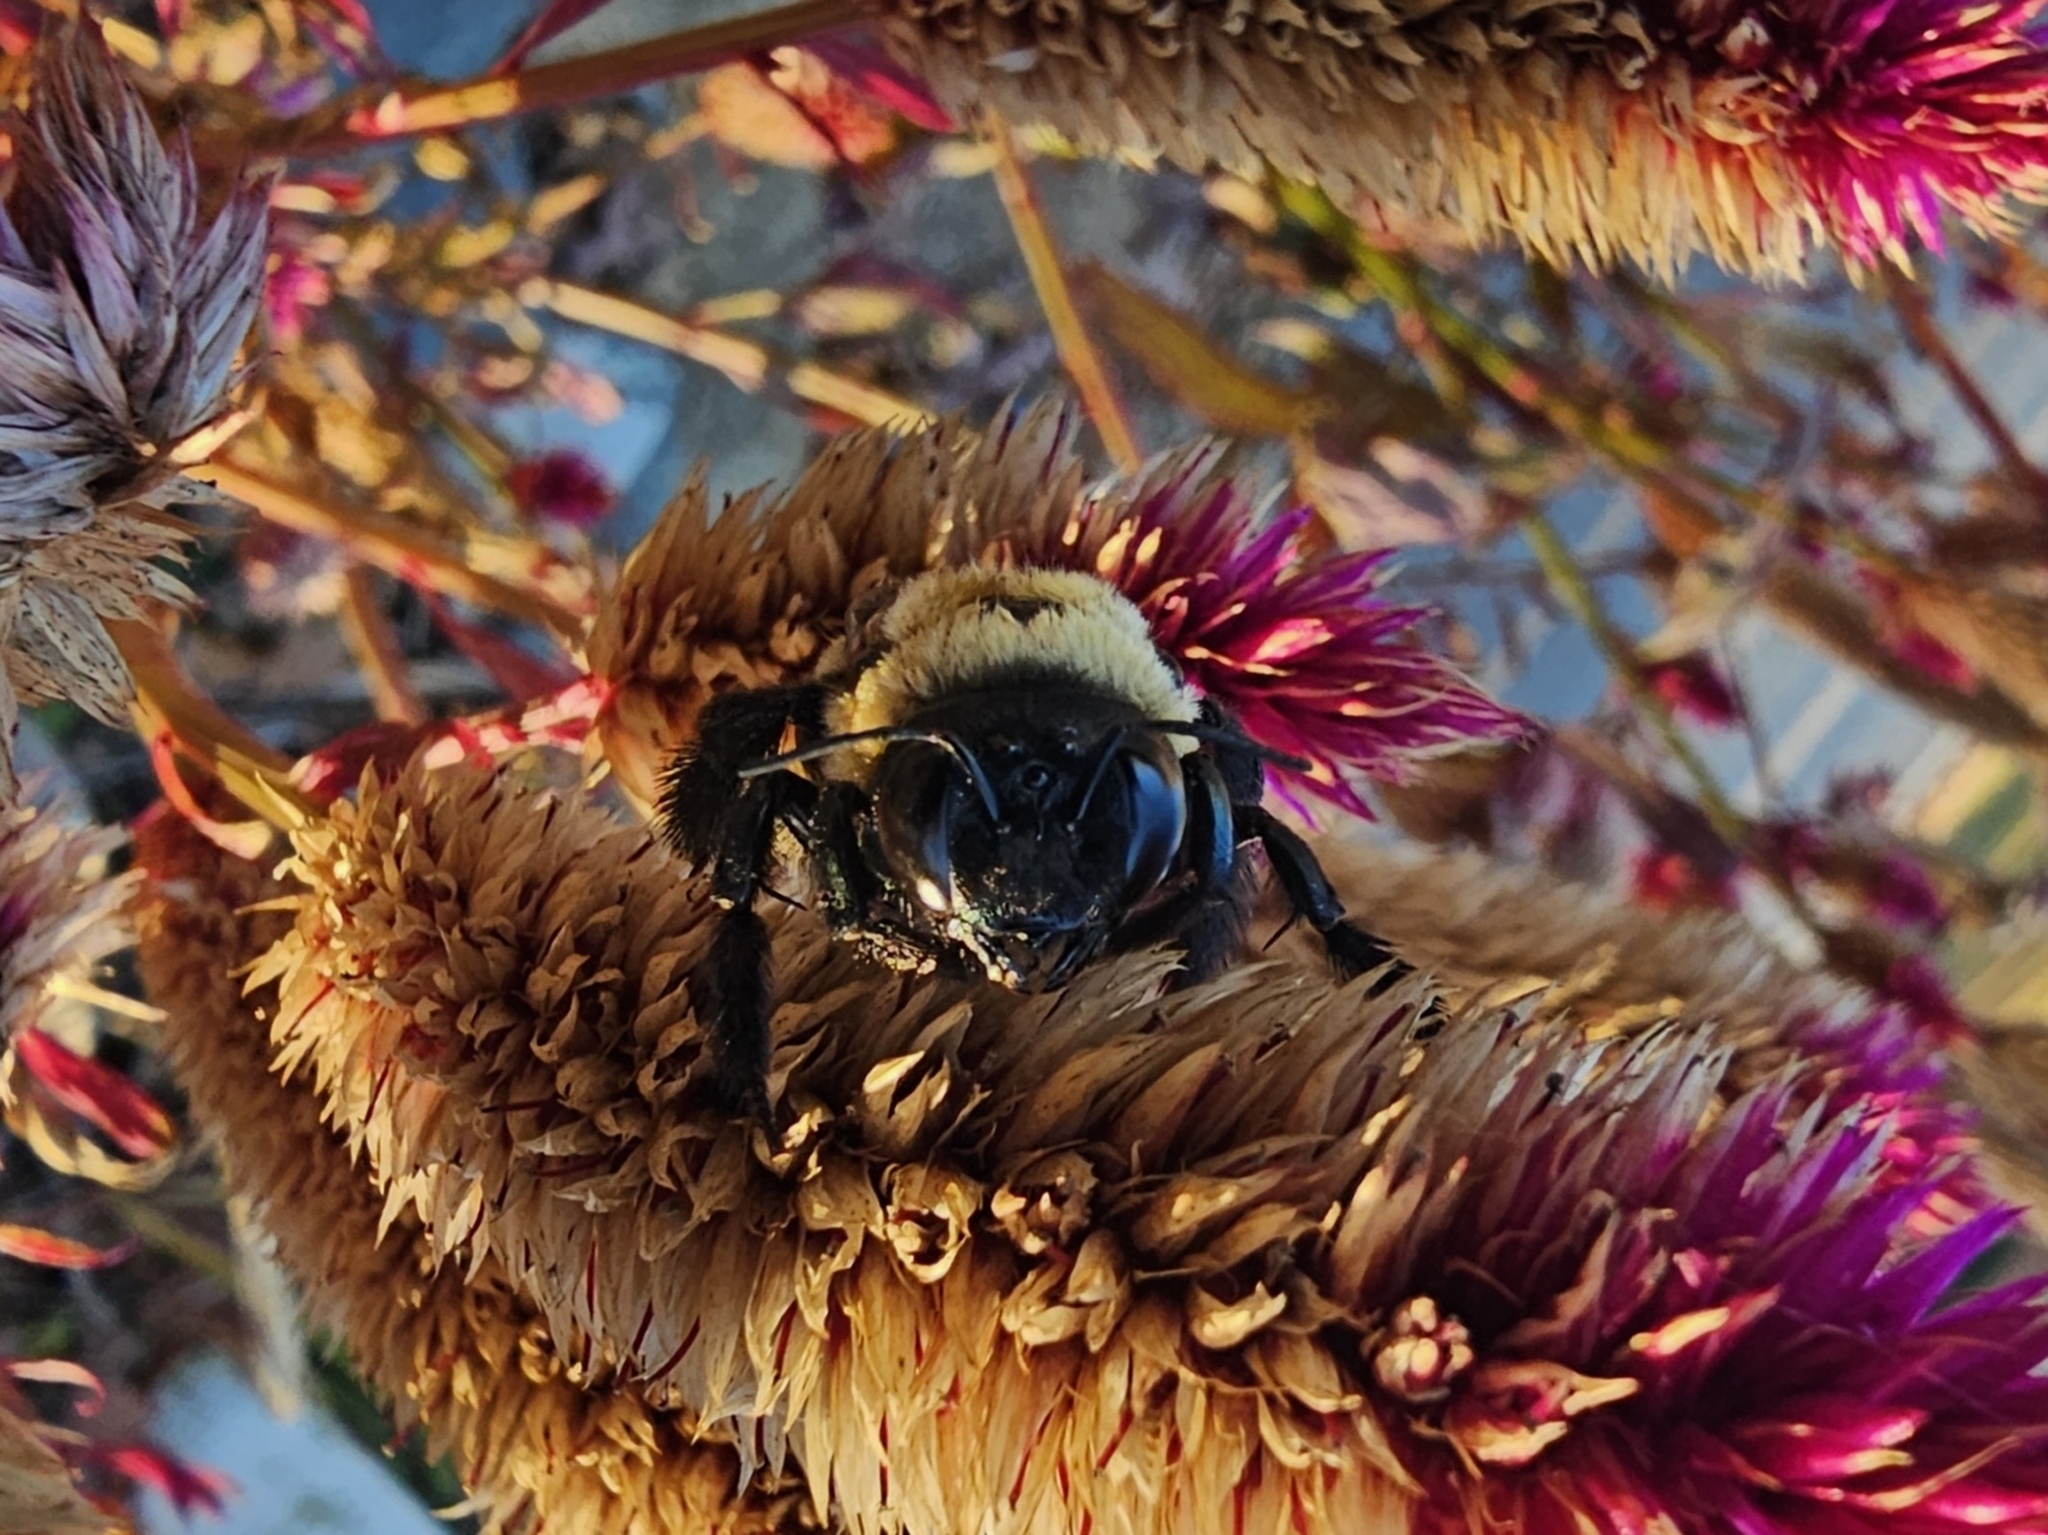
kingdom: Animalia
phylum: Arthropoda
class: Insecta
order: Hymenoptera
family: Apidae
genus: Xylocopa
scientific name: Xylocopa virginica
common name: Carpenter bee
